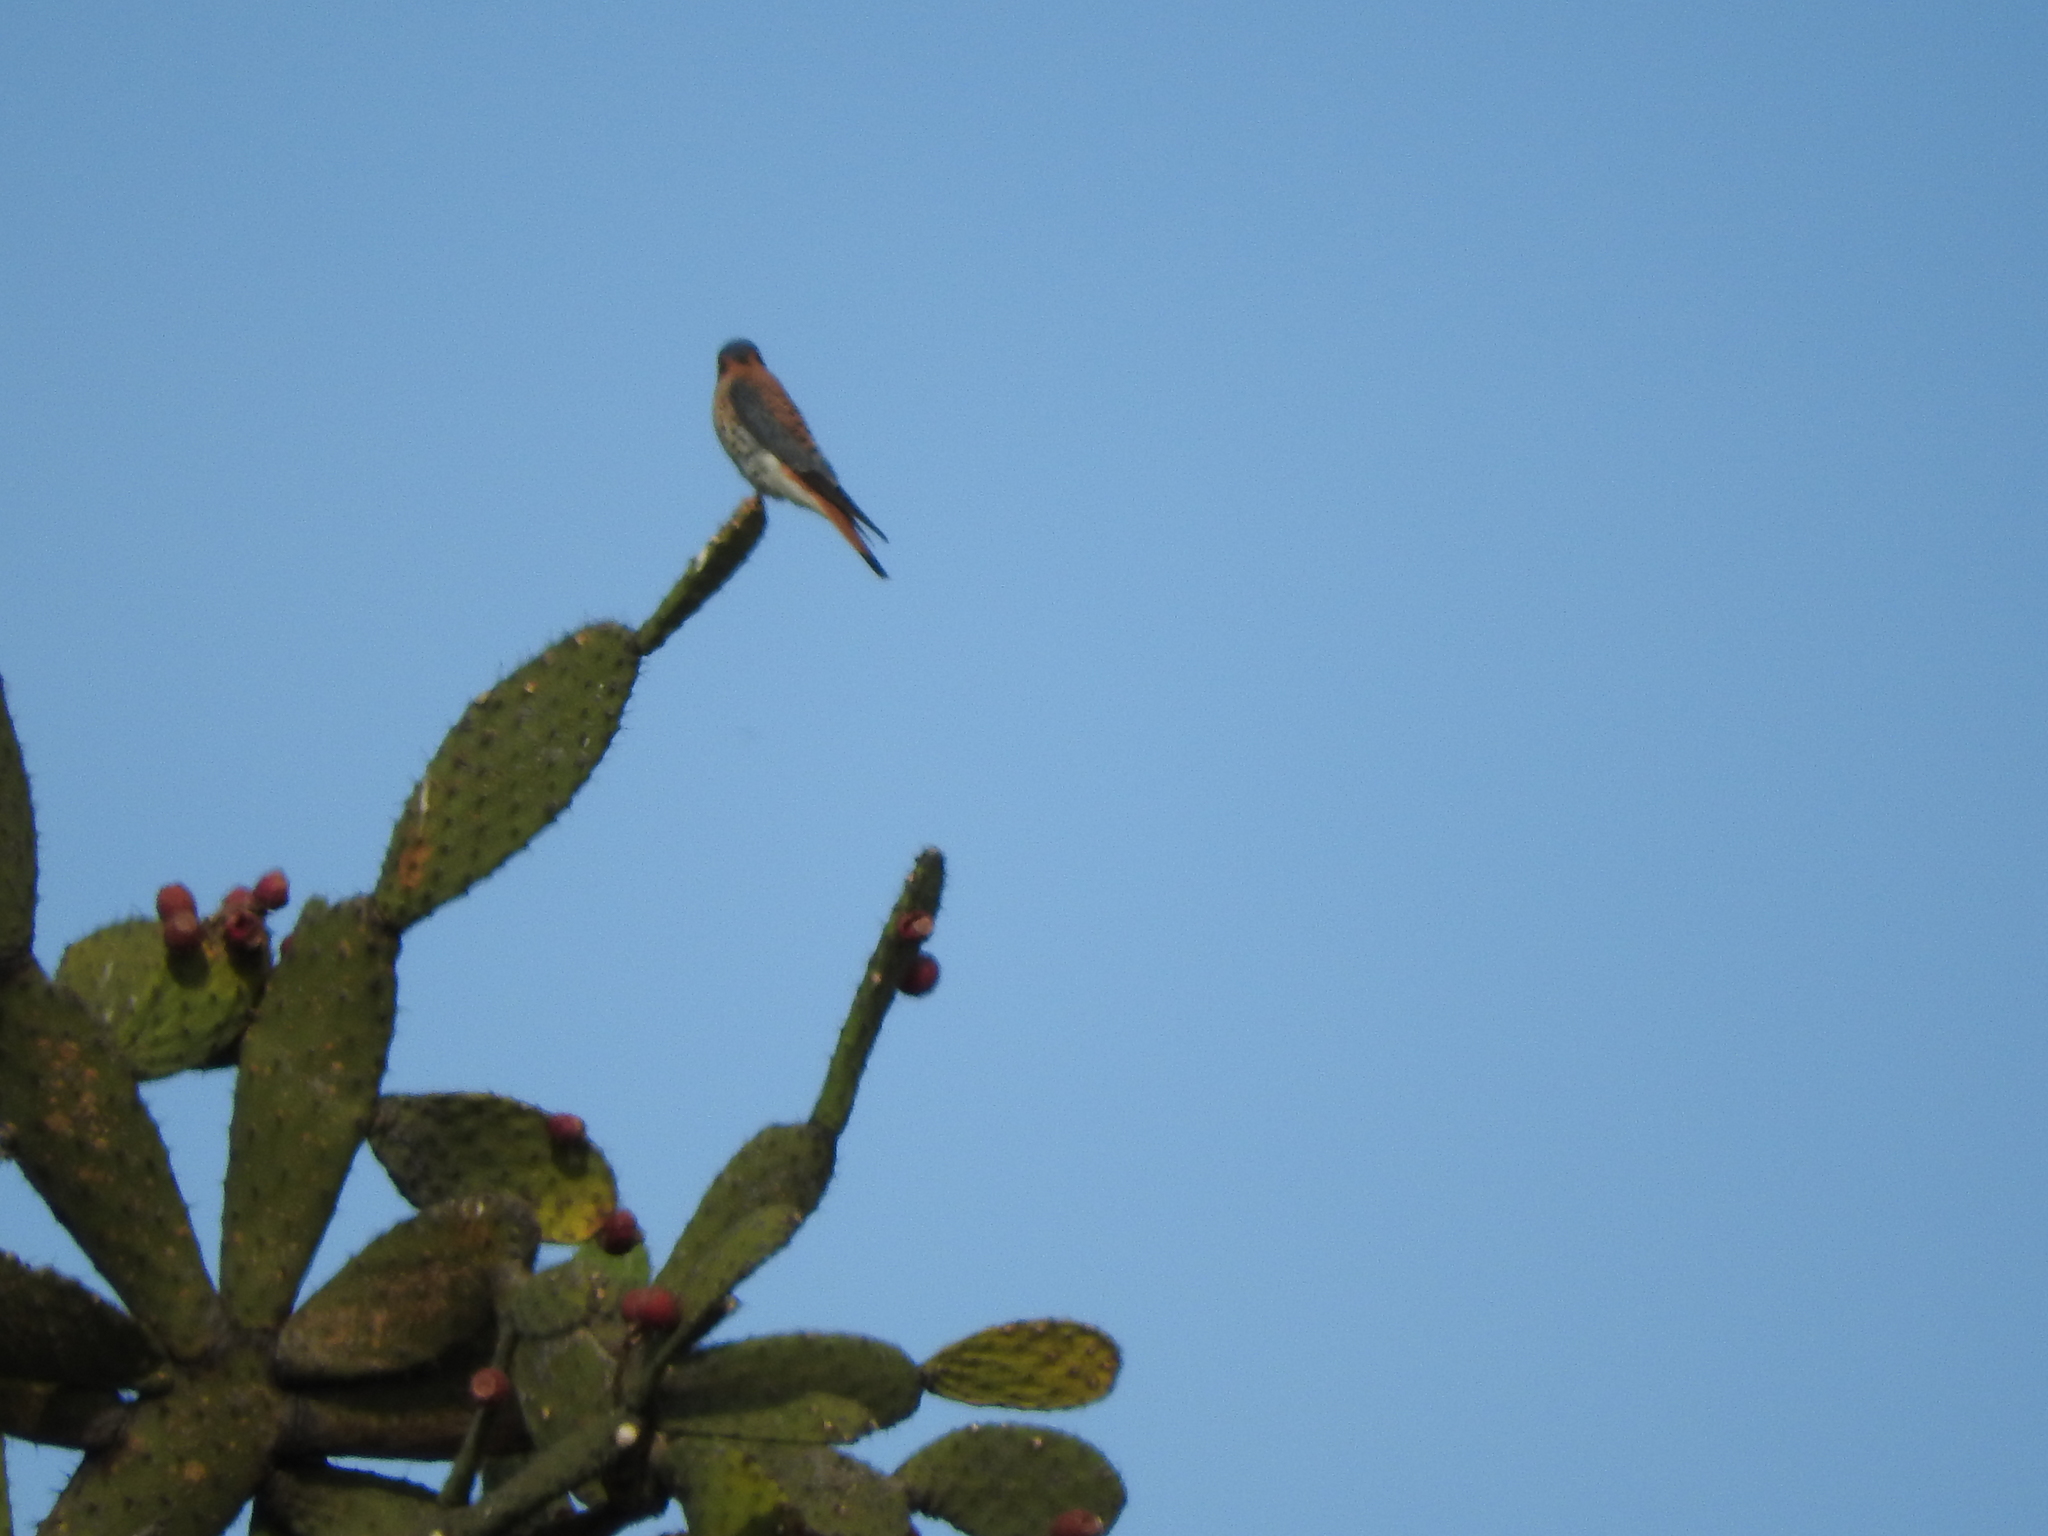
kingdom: Animalia
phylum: Chordata
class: Aves
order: Falconiformes
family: Falconidae
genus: Falco
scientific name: Falco sparverius
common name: American kestrel
